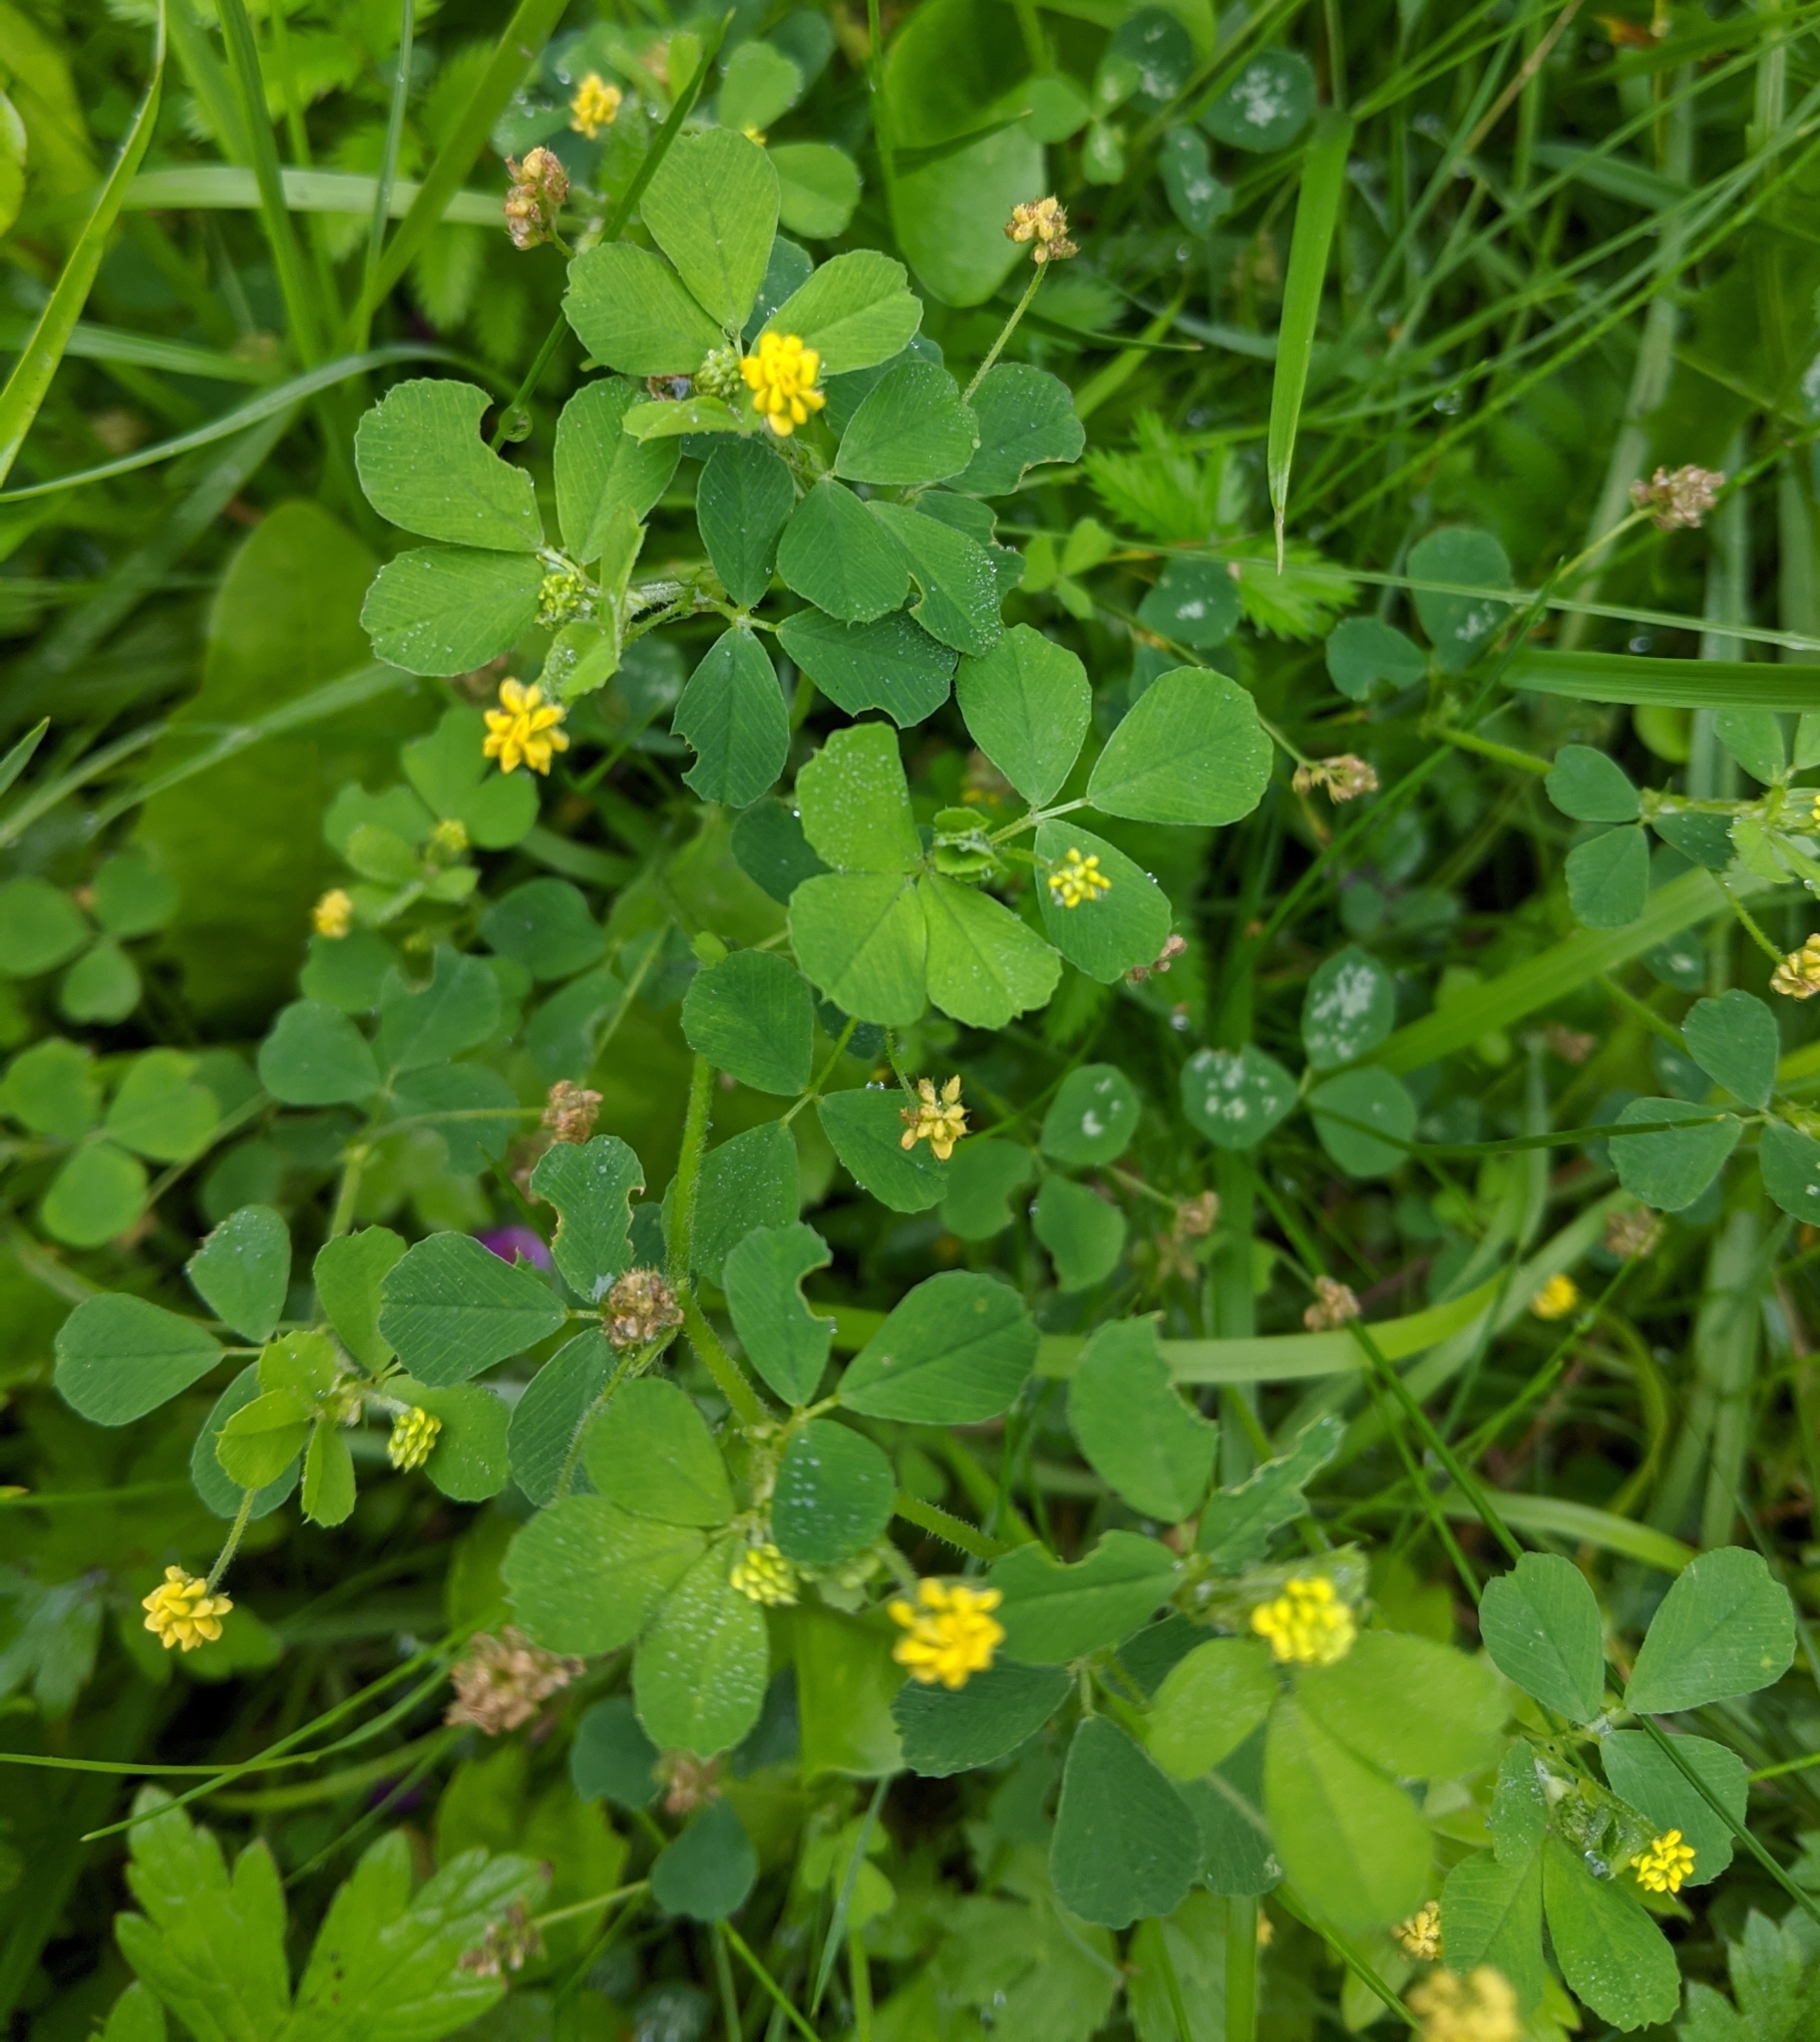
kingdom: Plantae
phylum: Tracheophyta
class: Magnoliopsida
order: Fabales
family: Fabaceae
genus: Medicago
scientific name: Medicago lupulina
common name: Black medick
